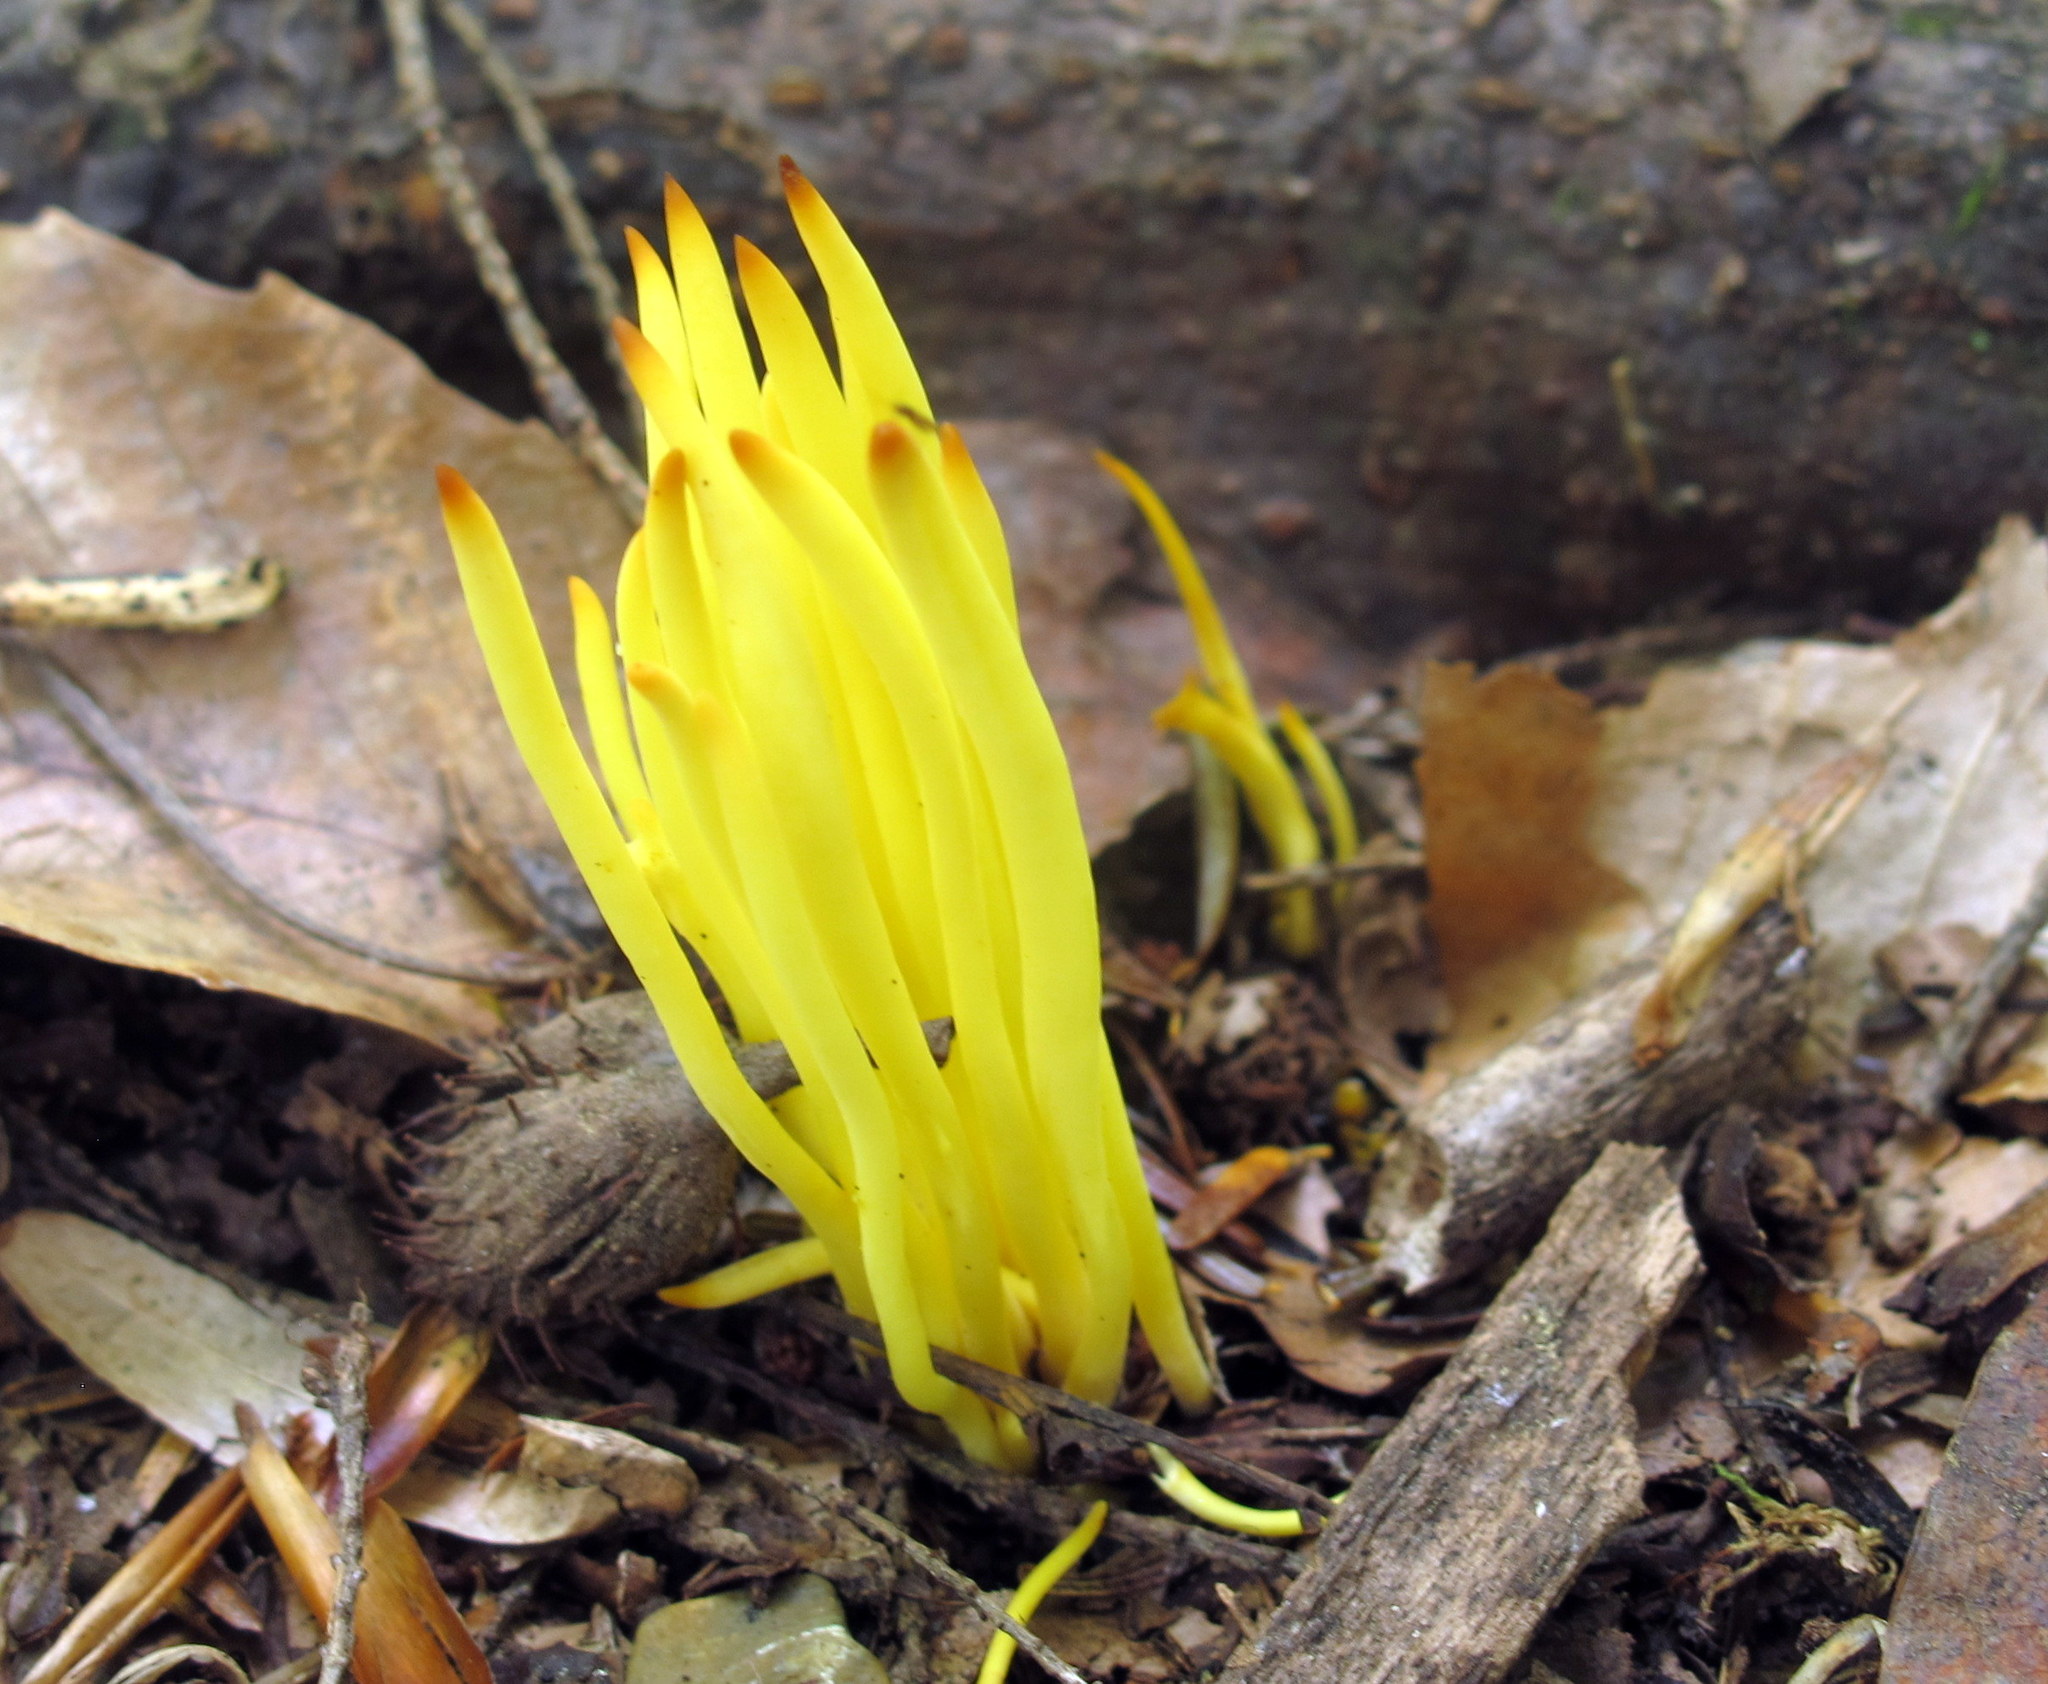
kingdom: Fungi
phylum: Basidiomycota
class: Agaricomycetes
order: Agaricales
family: Clavariaceae
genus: Clavulinopsis
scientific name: Clavulinopsis fusiformis
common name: Golden spindles
